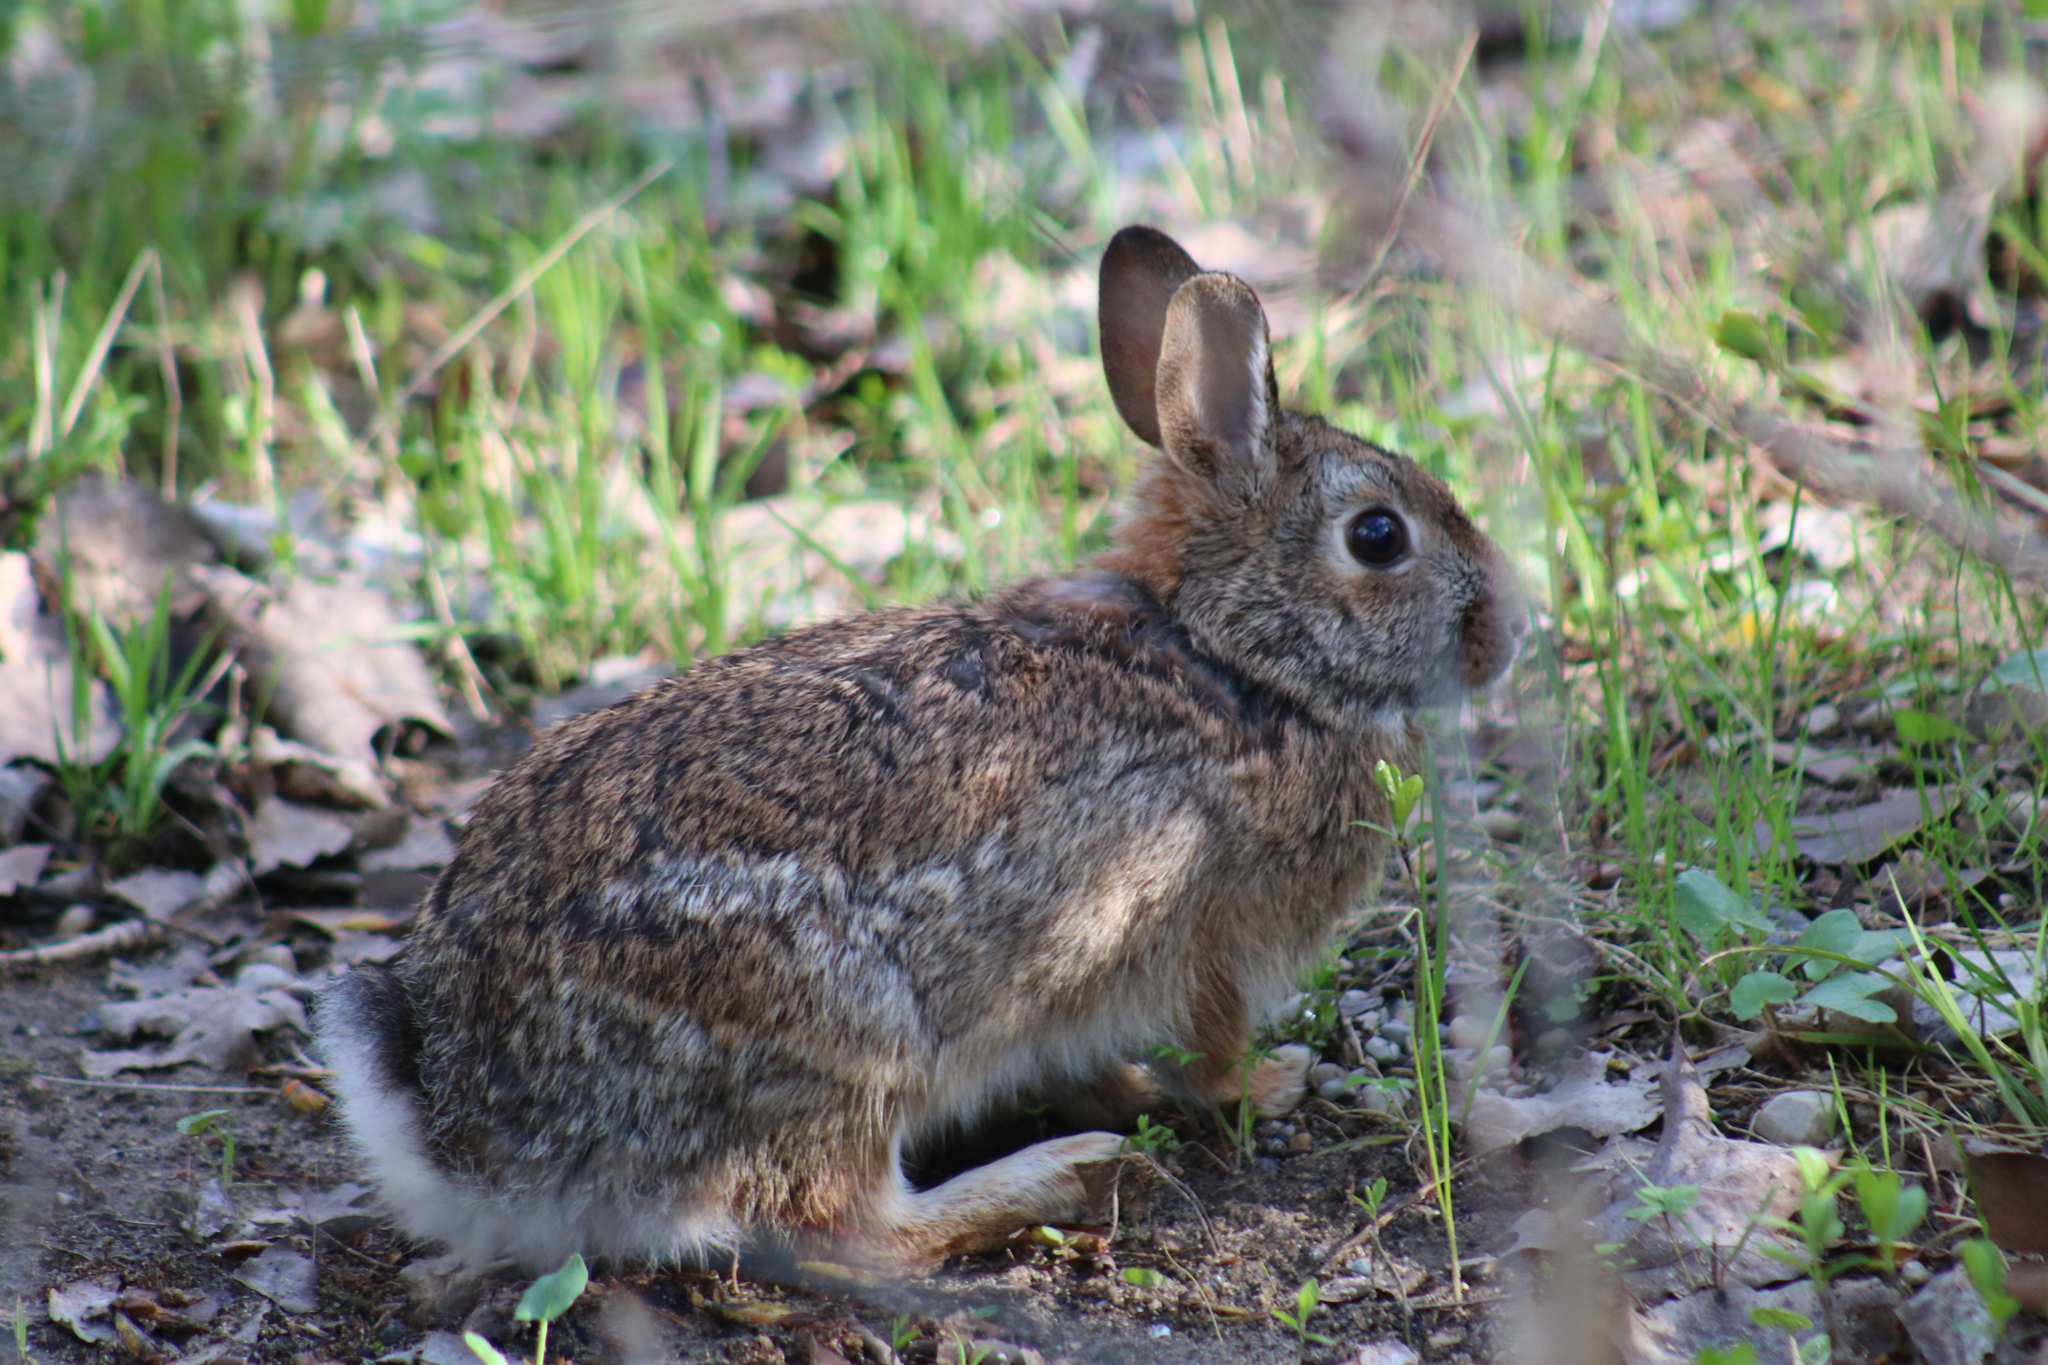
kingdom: Animalia
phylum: Chordata
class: Mammalia
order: Lagomorpha
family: Leporidae
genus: Sylvilagus
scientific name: Sylvilagus floridanus
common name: Eastern cottontail
